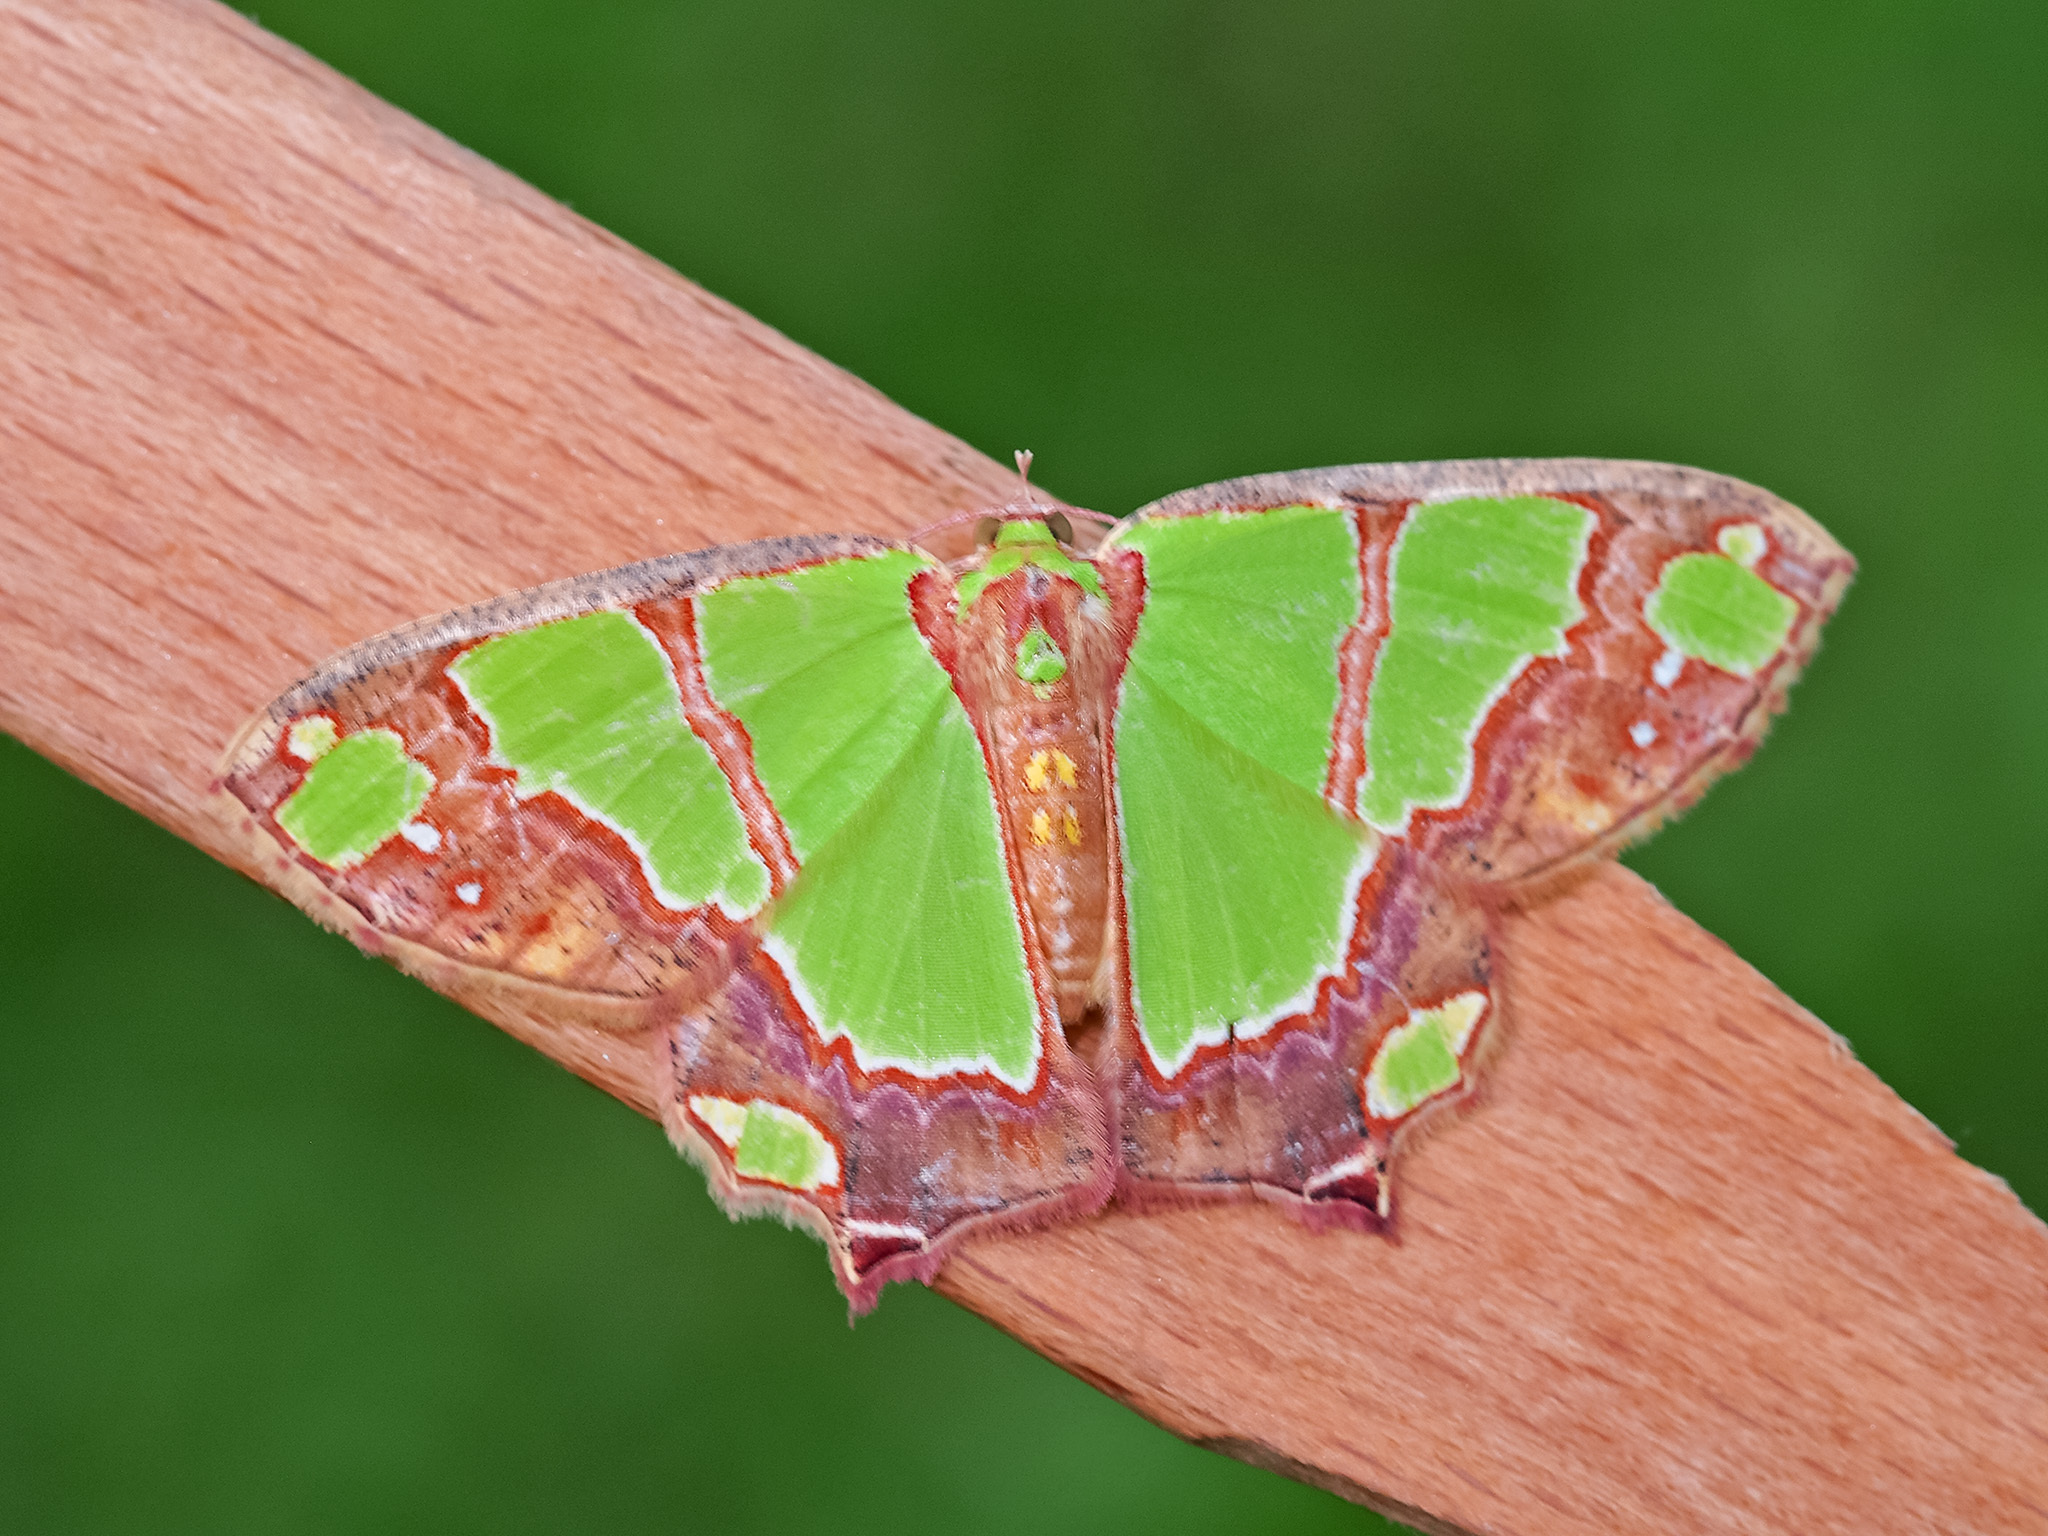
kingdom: Animalia
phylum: Arthropoda
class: Insecta
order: Lepidoptera
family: Geometridae
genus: Agathia
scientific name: Agathia rubrilineata
